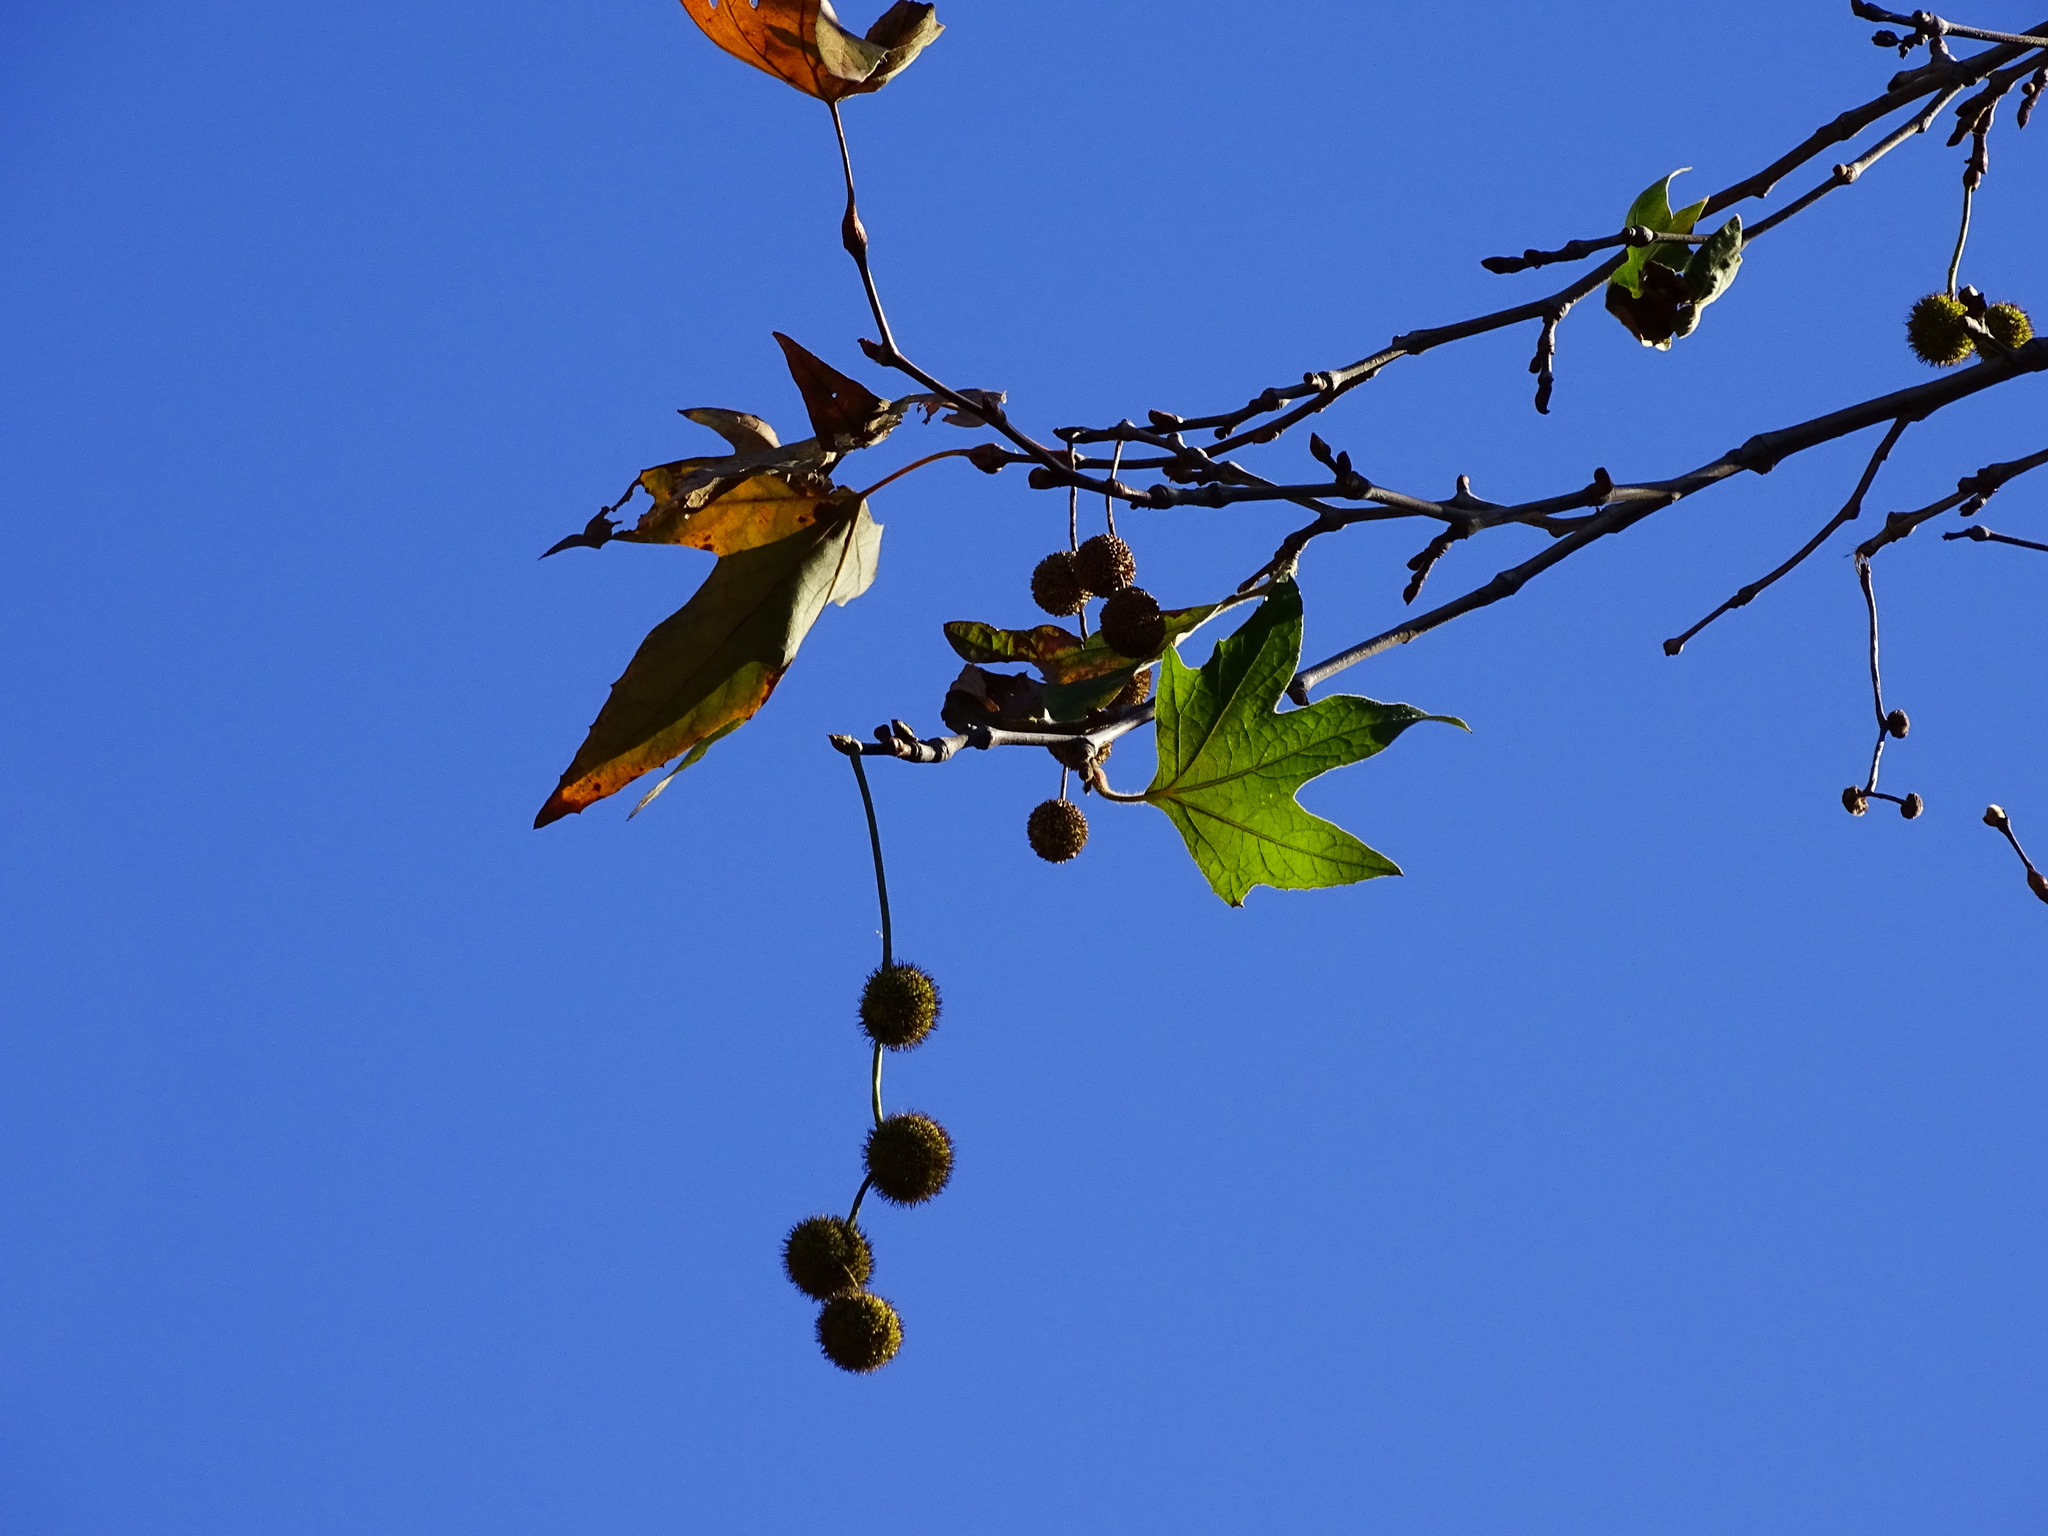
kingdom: Plantae
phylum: Tracheophyta
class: Magnoliopsida
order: Proteales
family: Platanaceae
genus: Platanus
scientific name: Platanus racemosa
